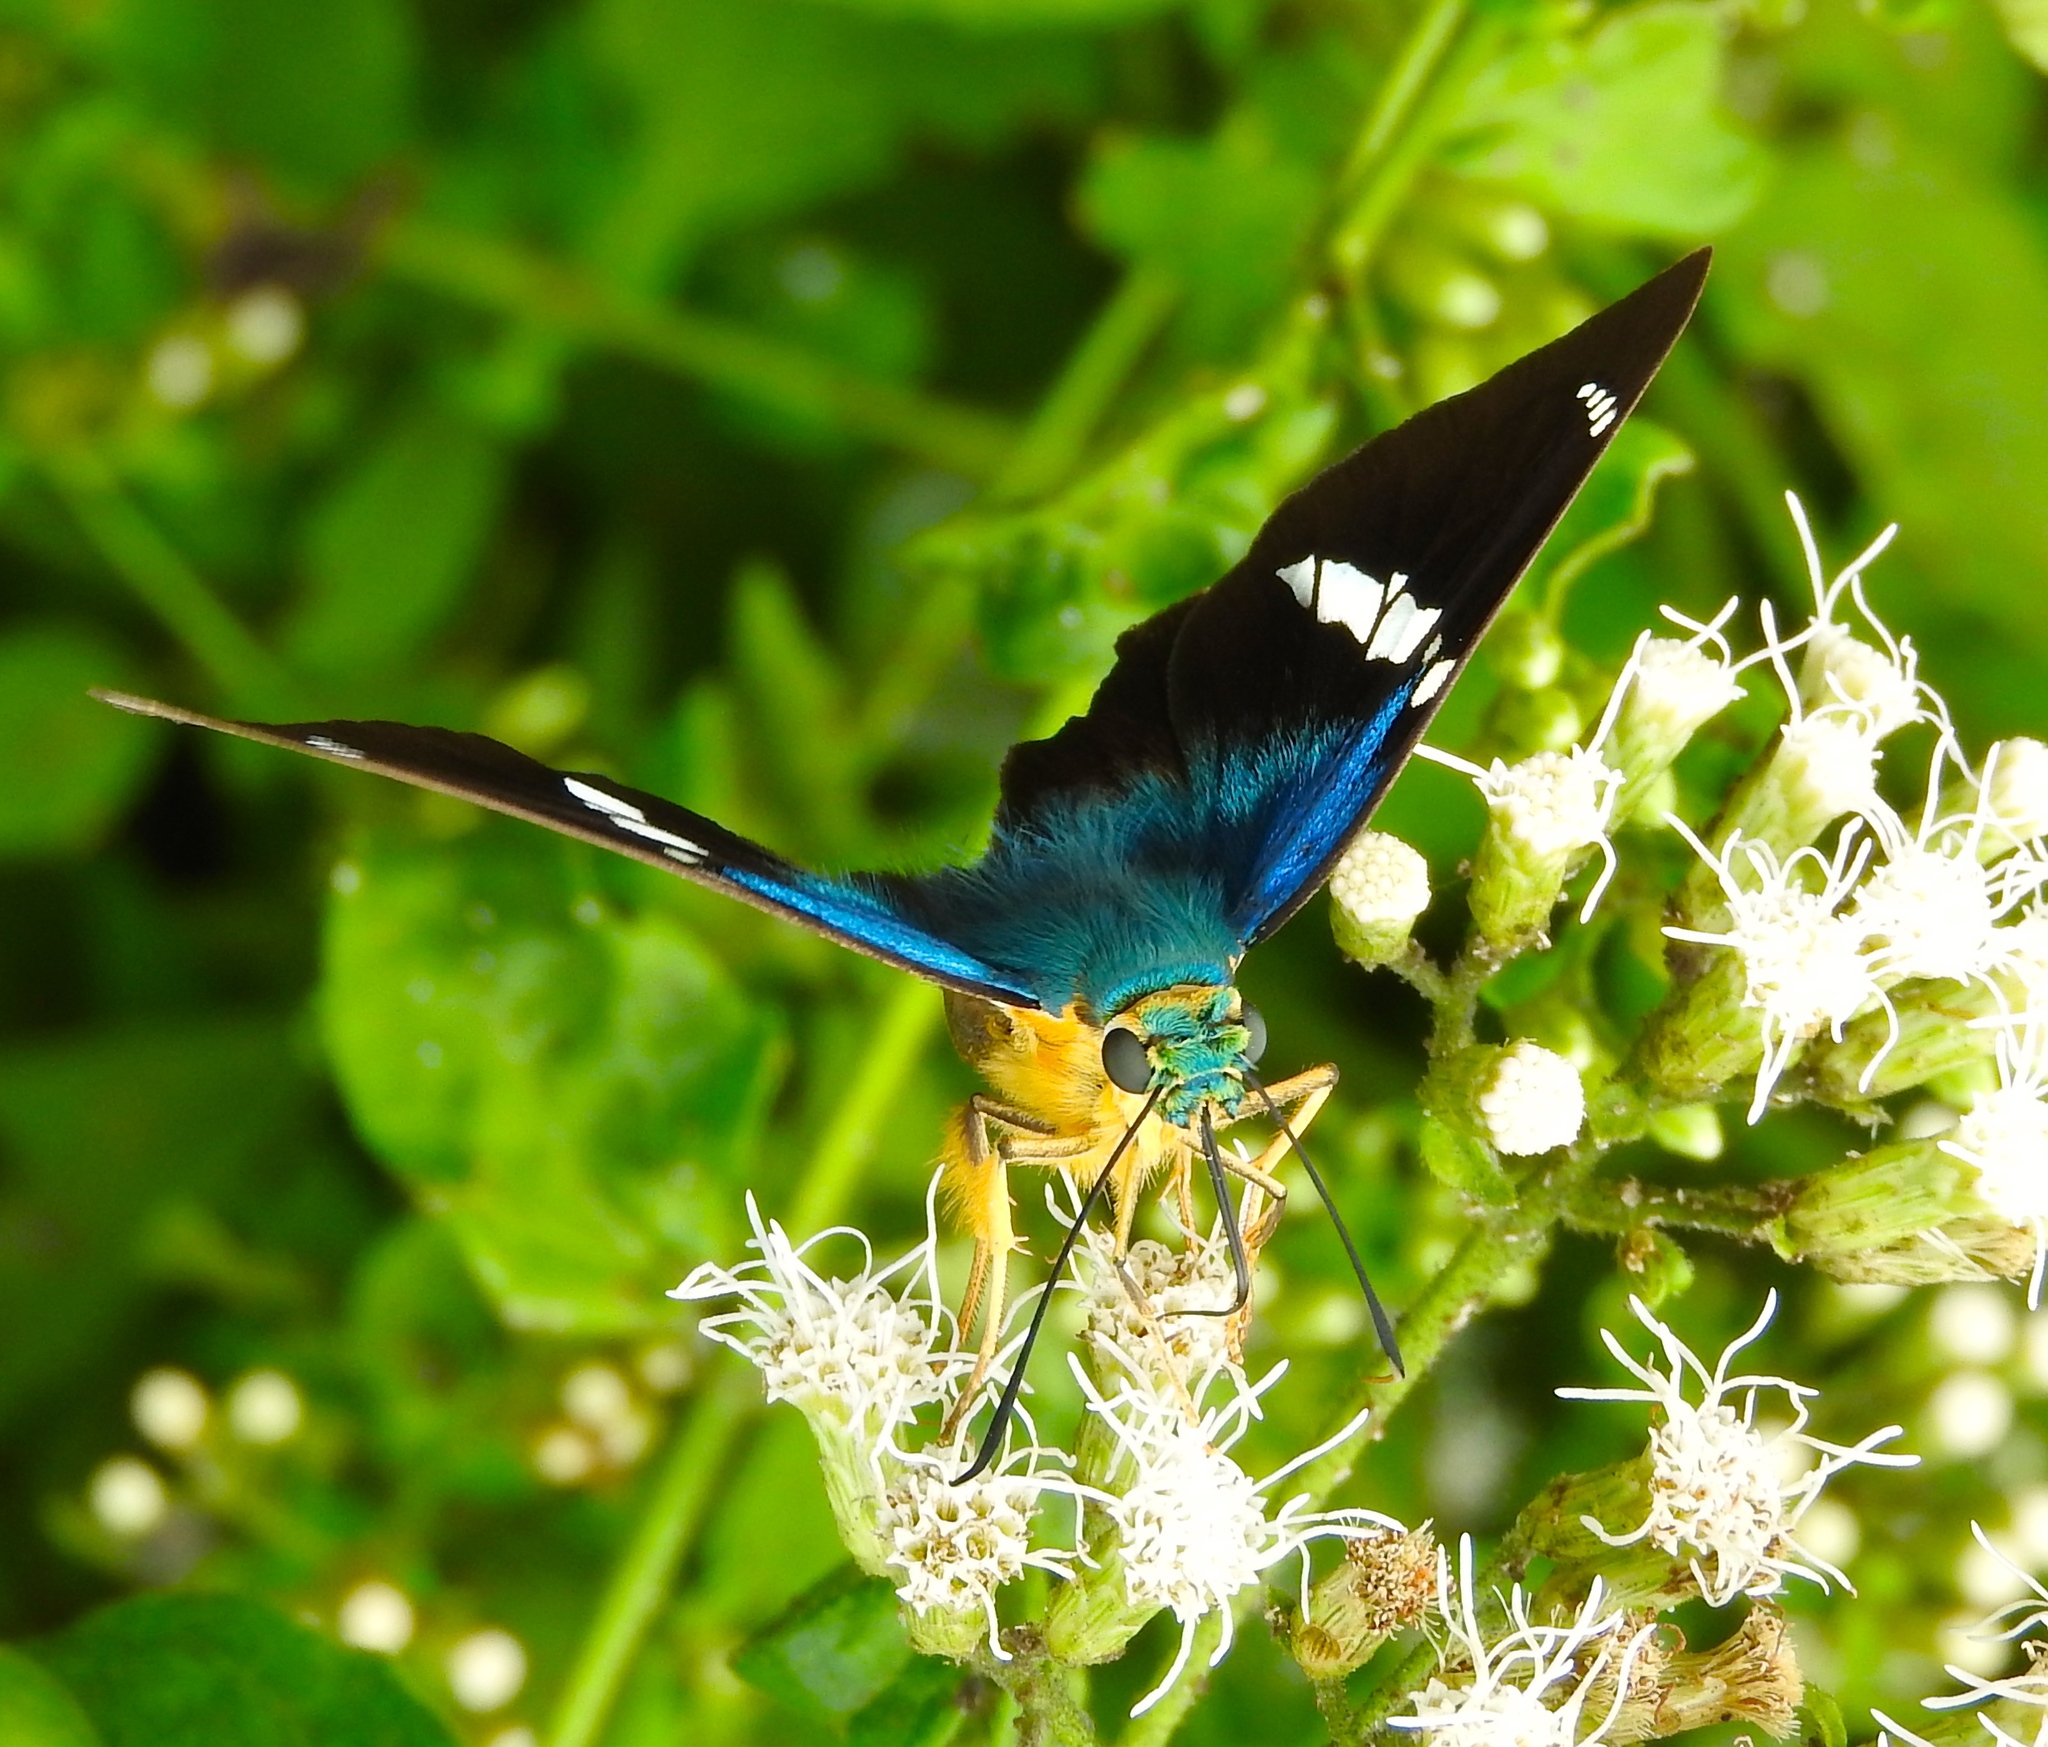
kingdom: Animalia
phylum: Arthropoda
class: Insecta
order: Lepidoptera
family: Hesperiidae
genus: Astraptes
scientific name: Astraptes fulgerator
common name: Two-barred flasher
